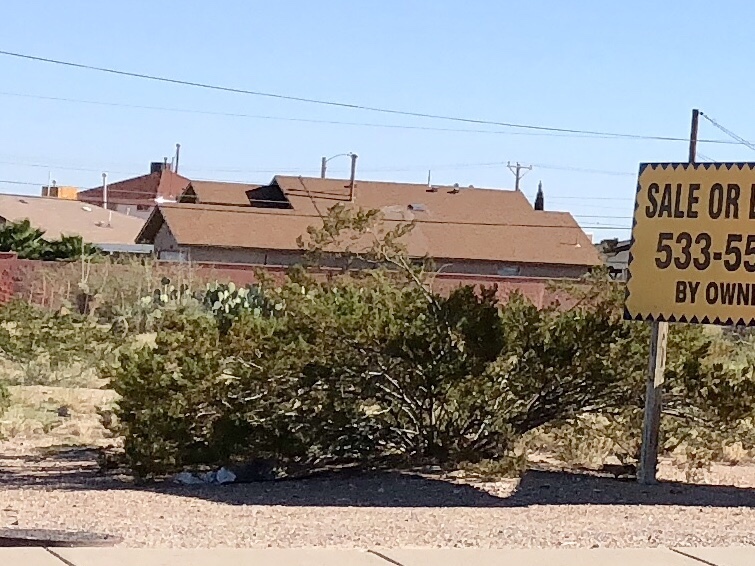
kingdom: Plantae
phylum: Tracheophyta
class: Magnoliopsida
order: Zygophyllales
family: Zygophyllaceae
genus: Larrea
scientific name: Larrea tridentata
